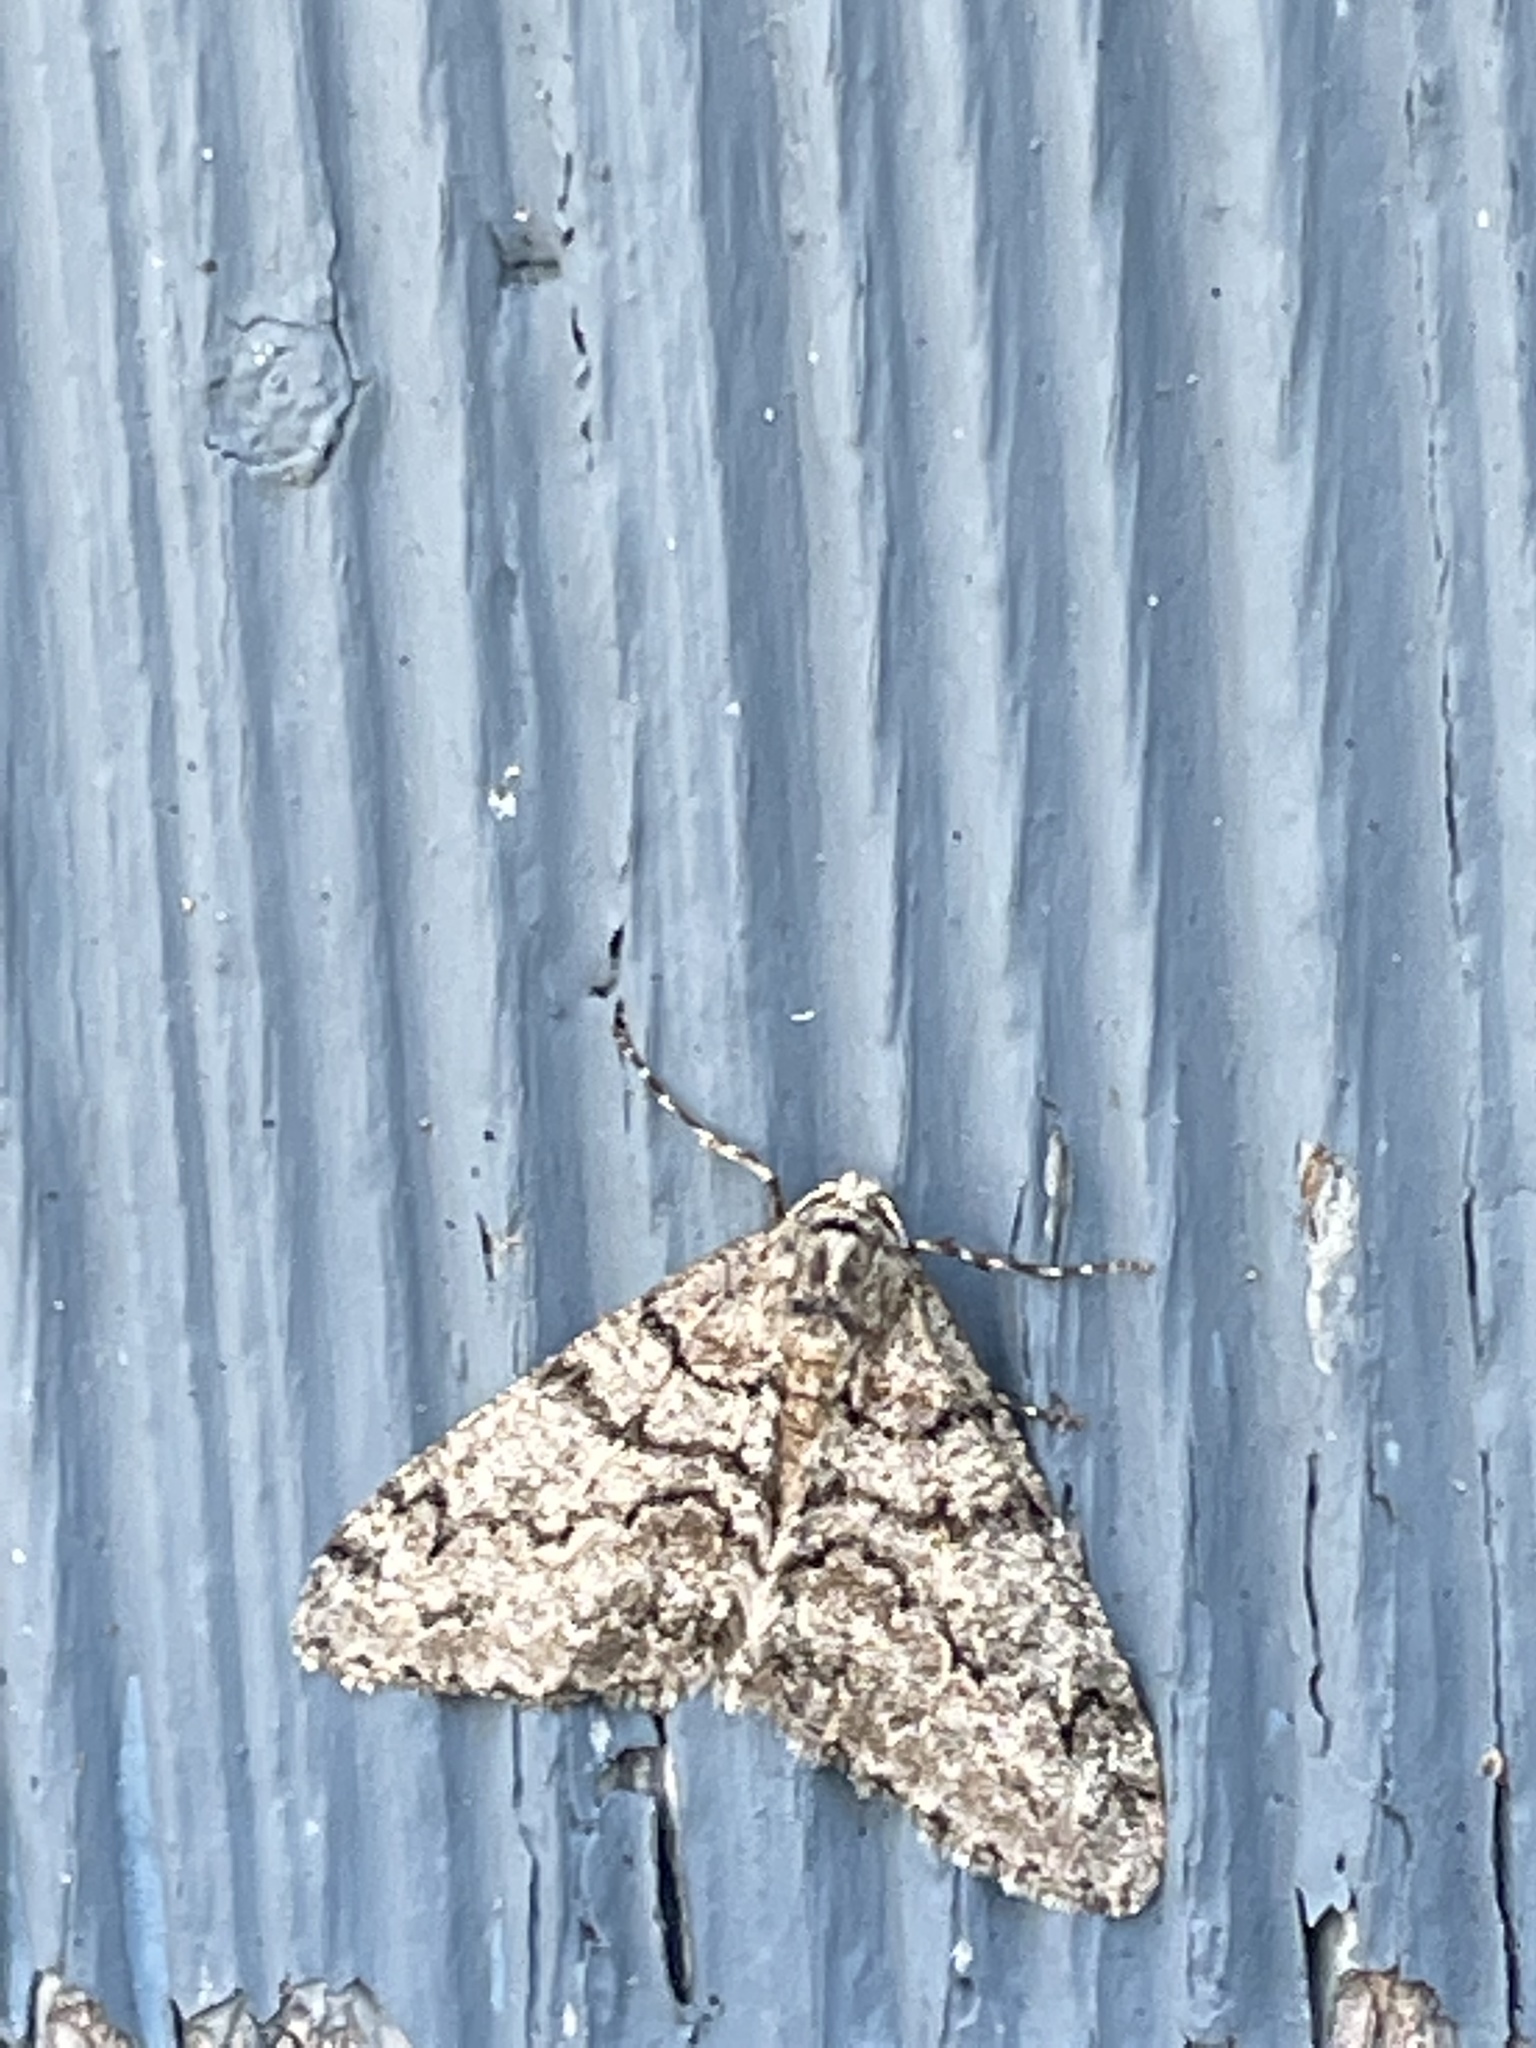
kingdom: Animalia
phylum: Arthropoda
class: Insecta
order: Lepidoptera
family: Geometridae
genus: Phigalia
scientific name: Phigalia denticulata
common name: Toothed phigalia
